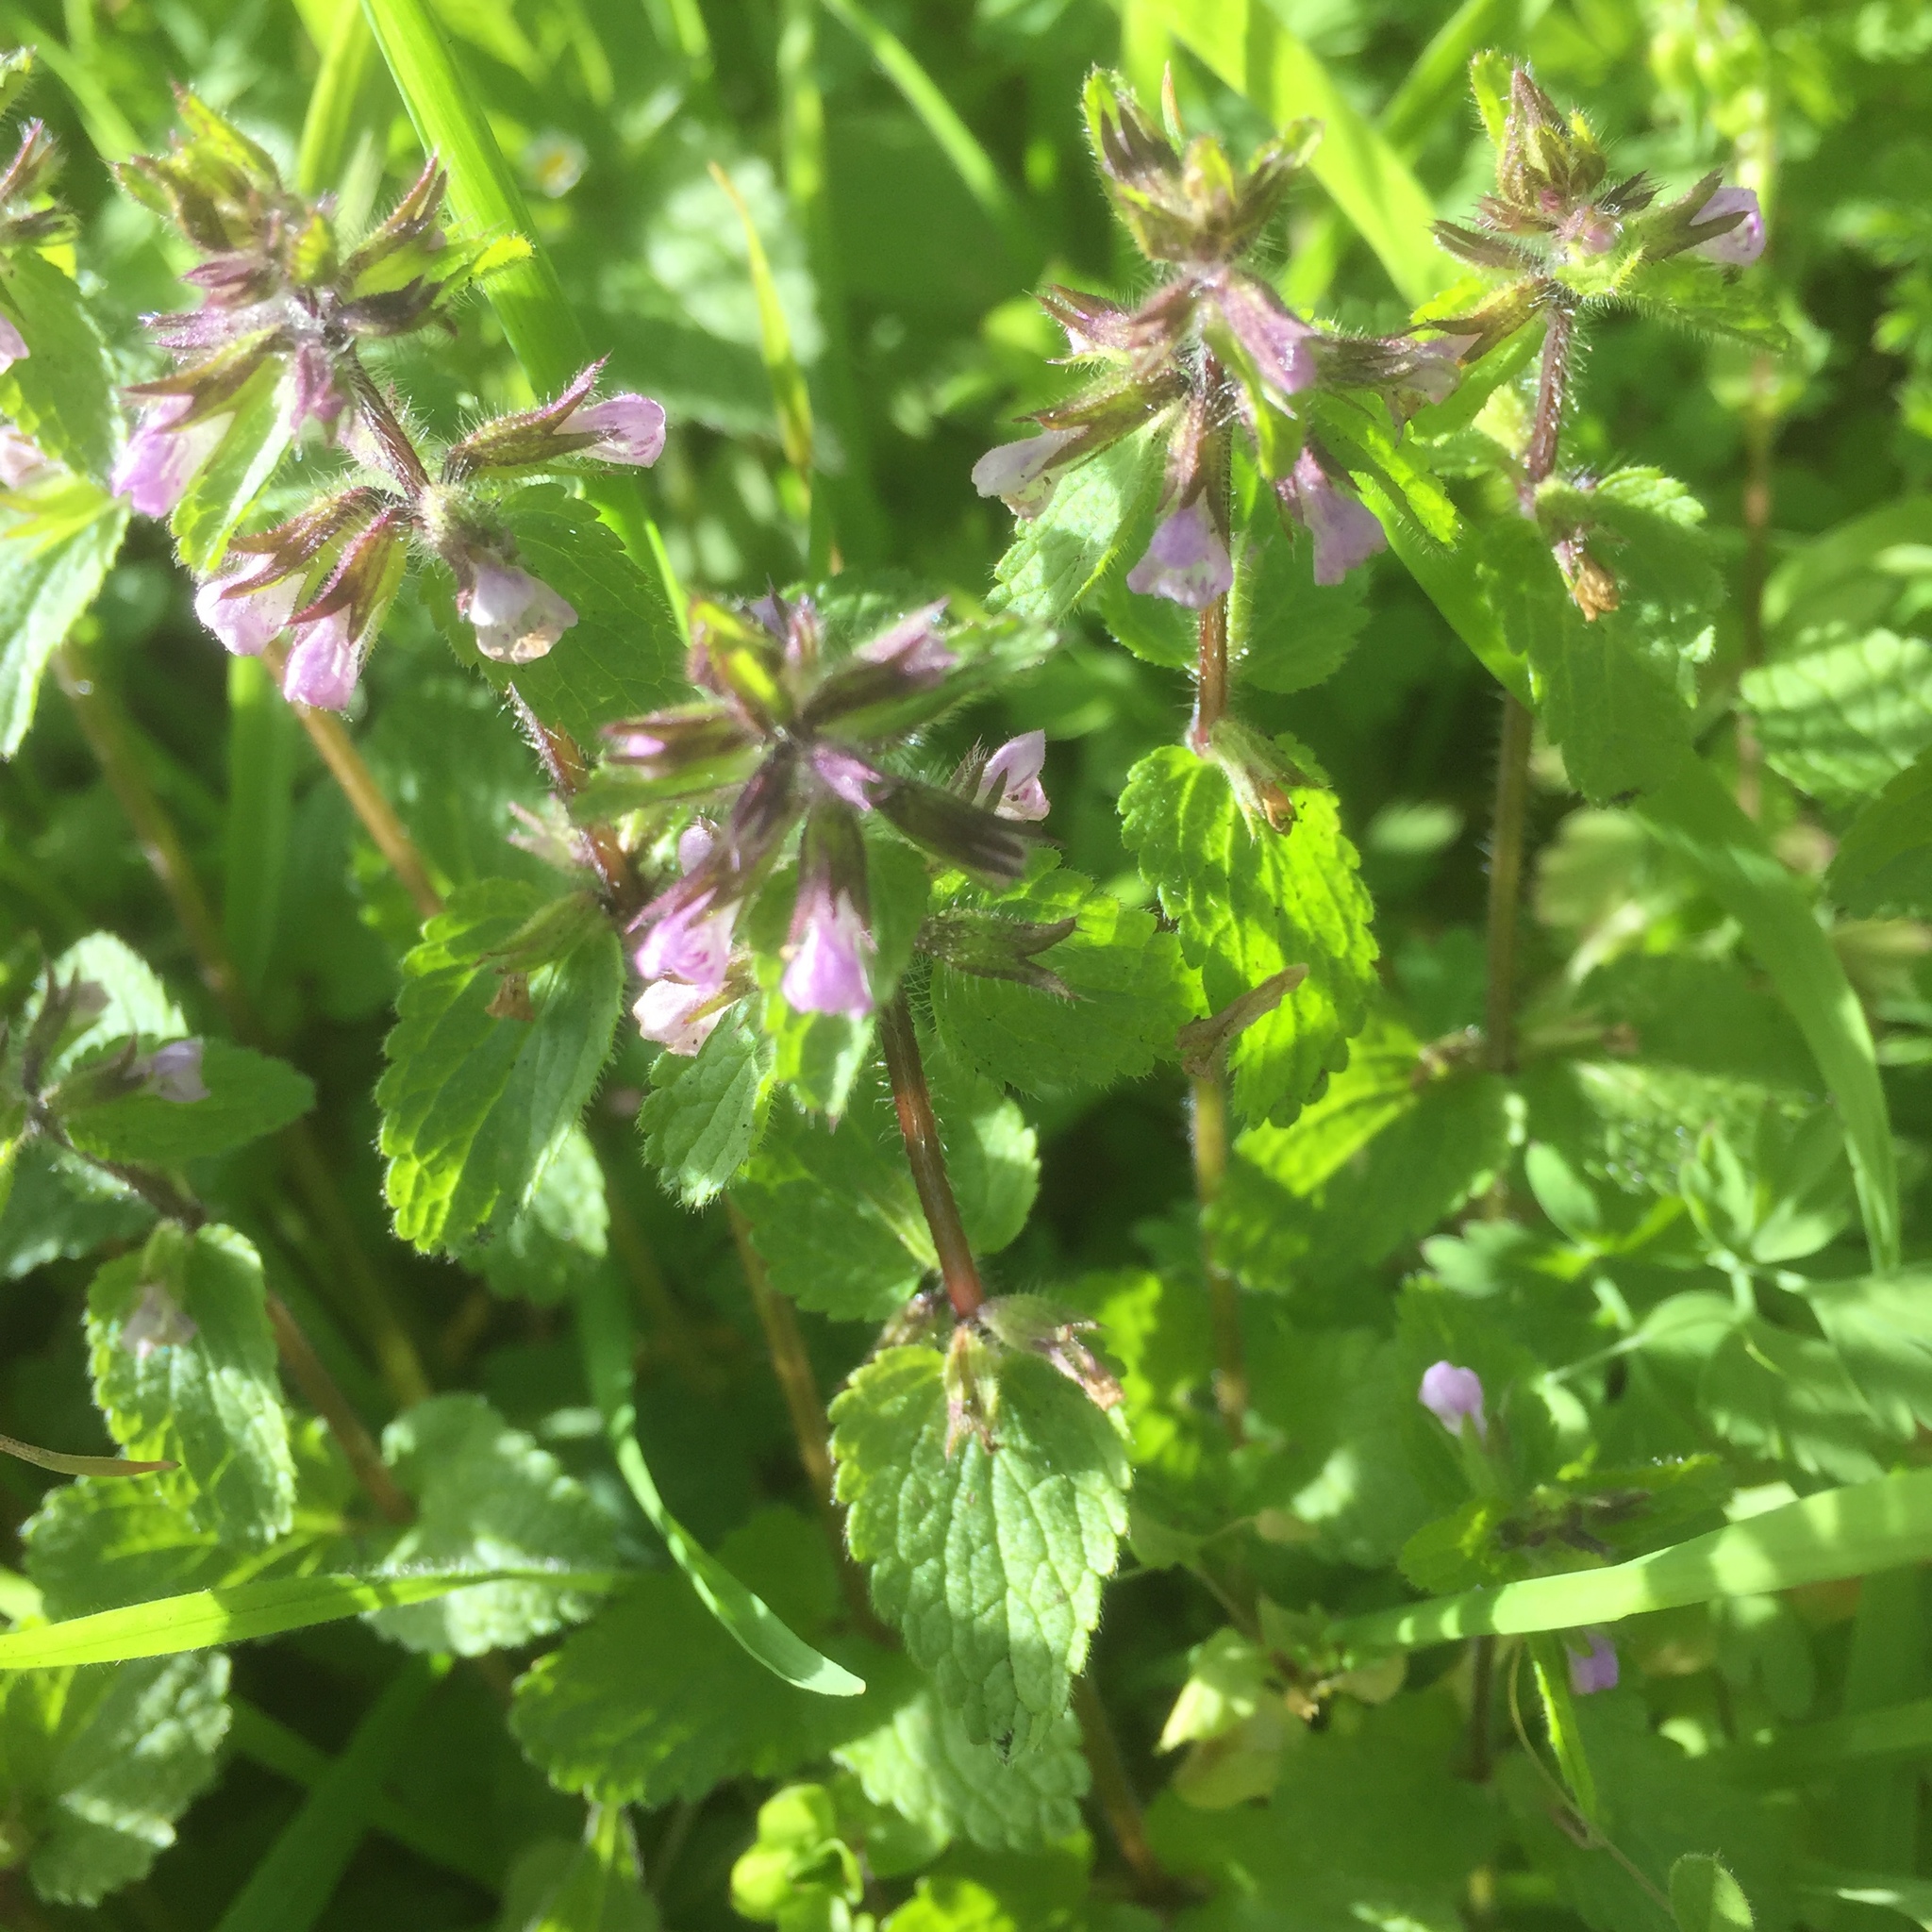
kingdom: Plantae
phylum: Tracheophyta
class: Magnoliopsida
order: Lamiales
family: Lamiaceae
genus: Stachys
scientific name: Stachys arvensis
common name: Field woundwort
